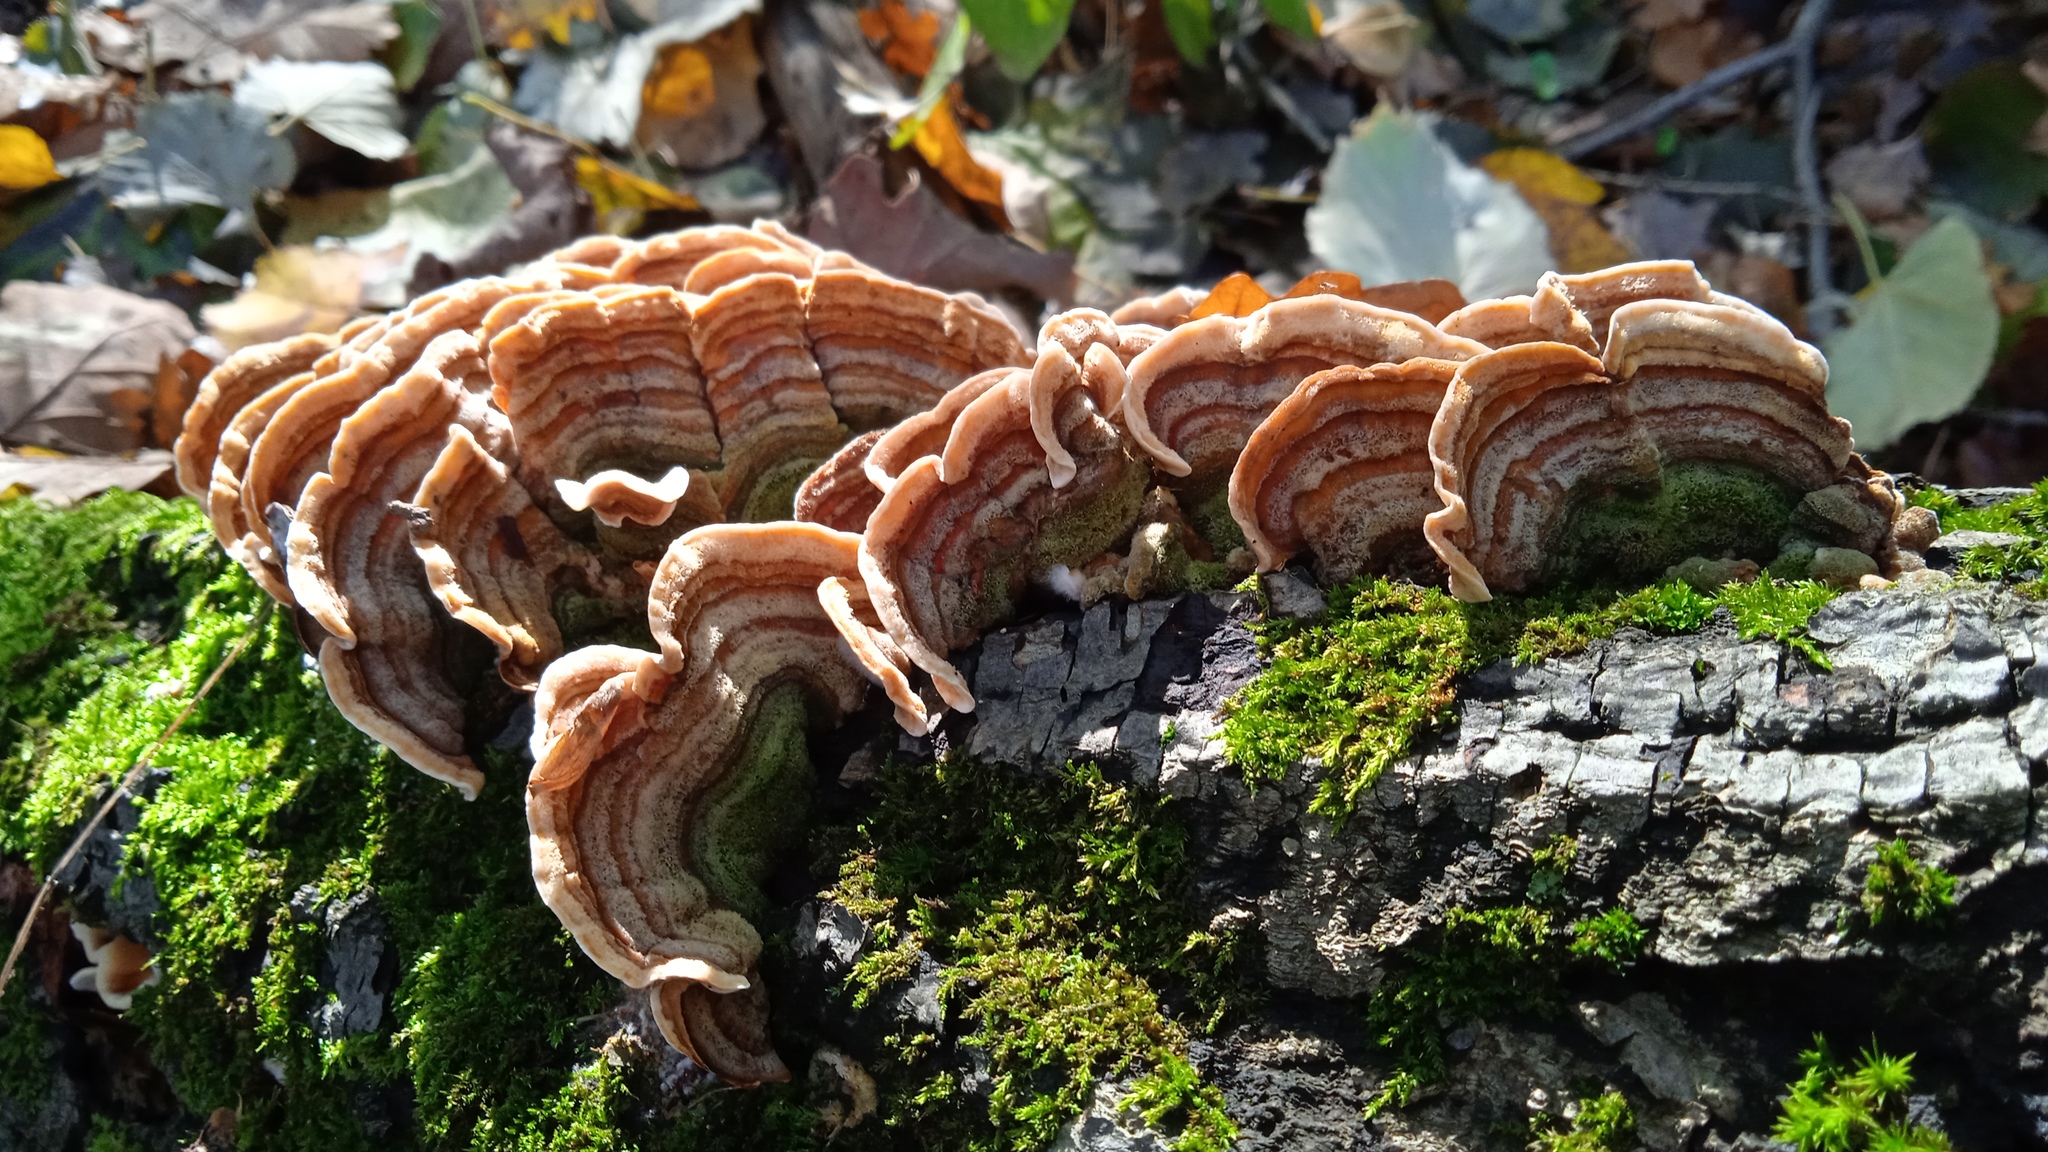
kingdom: Fungi
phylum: Basidiomycota
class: Agaricomycetes
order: Russulales
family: Stereaceae
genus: Stereum
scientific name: Stereum subtomentosum
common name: Yellowing curtain crust
